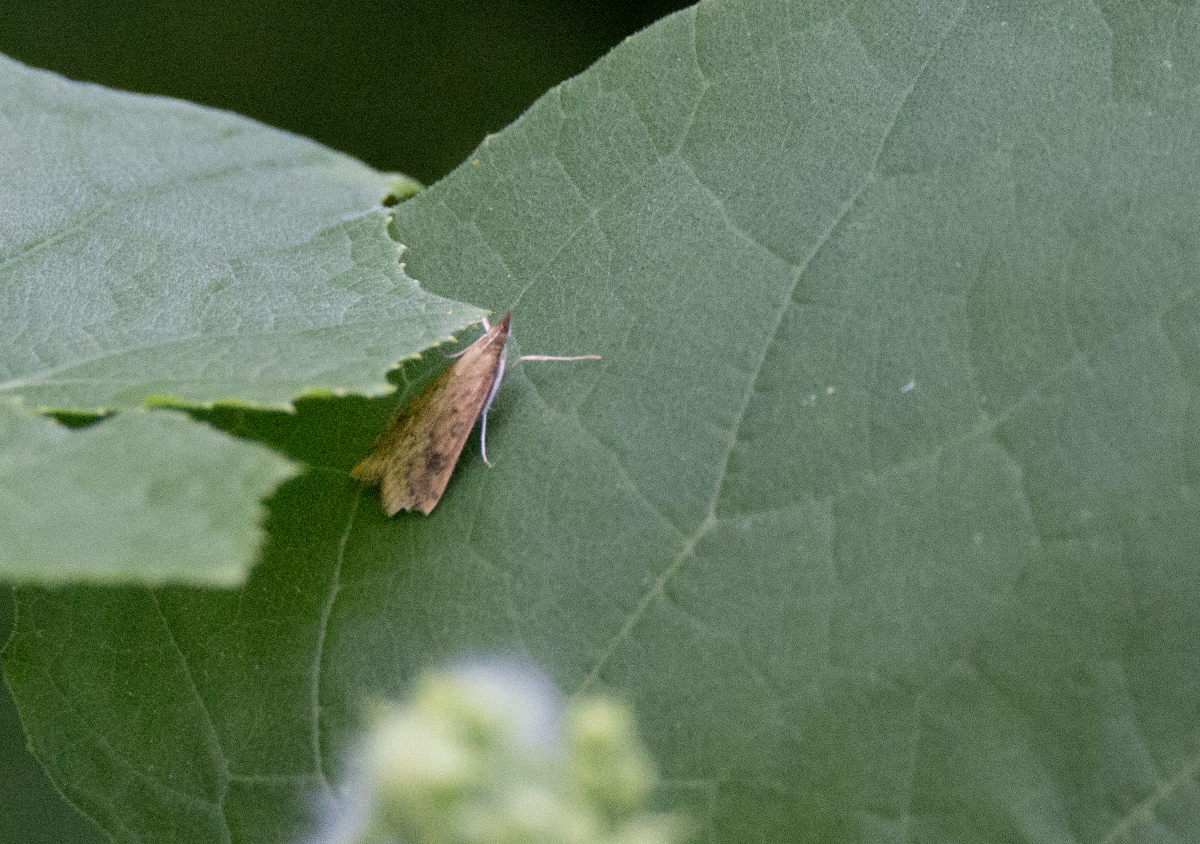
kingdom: Animalia
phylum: Arthropoda
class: Insecta
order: Lepidoptera
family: Crambidae
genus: Udea
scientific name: Udea ferrugalis
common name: Rusty dot
